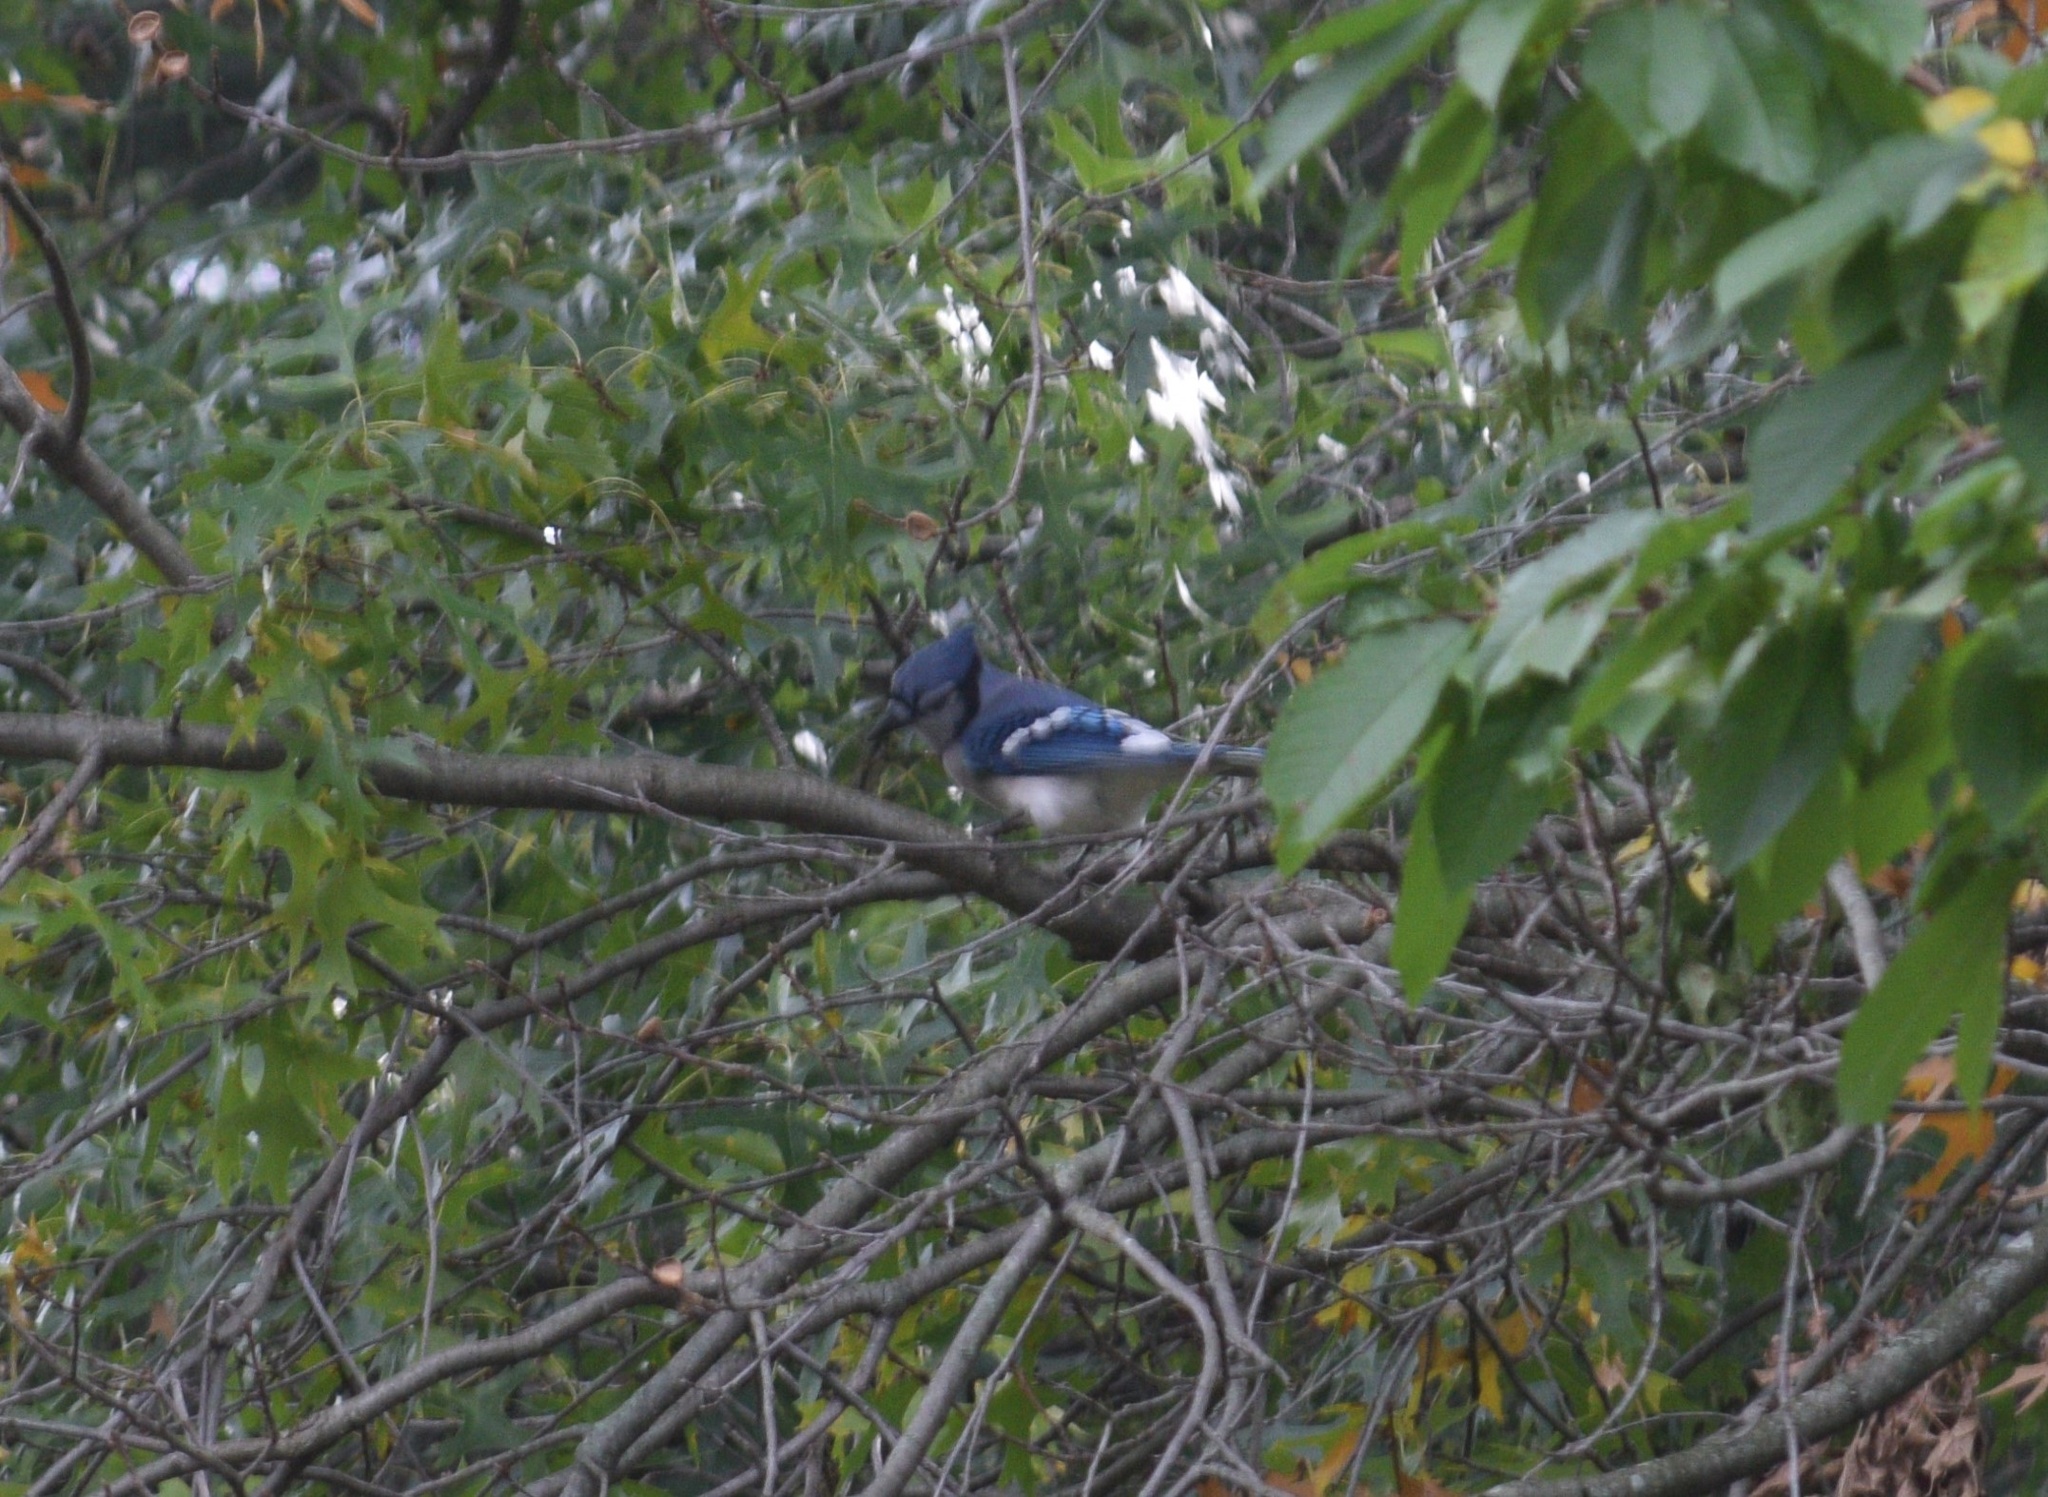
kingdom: Animalia
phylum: Chordata
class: Aves
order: Passeriformes
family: Corvidae
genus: Cyanocitta
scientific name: Cyanocitta cristata
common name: Blue jay
